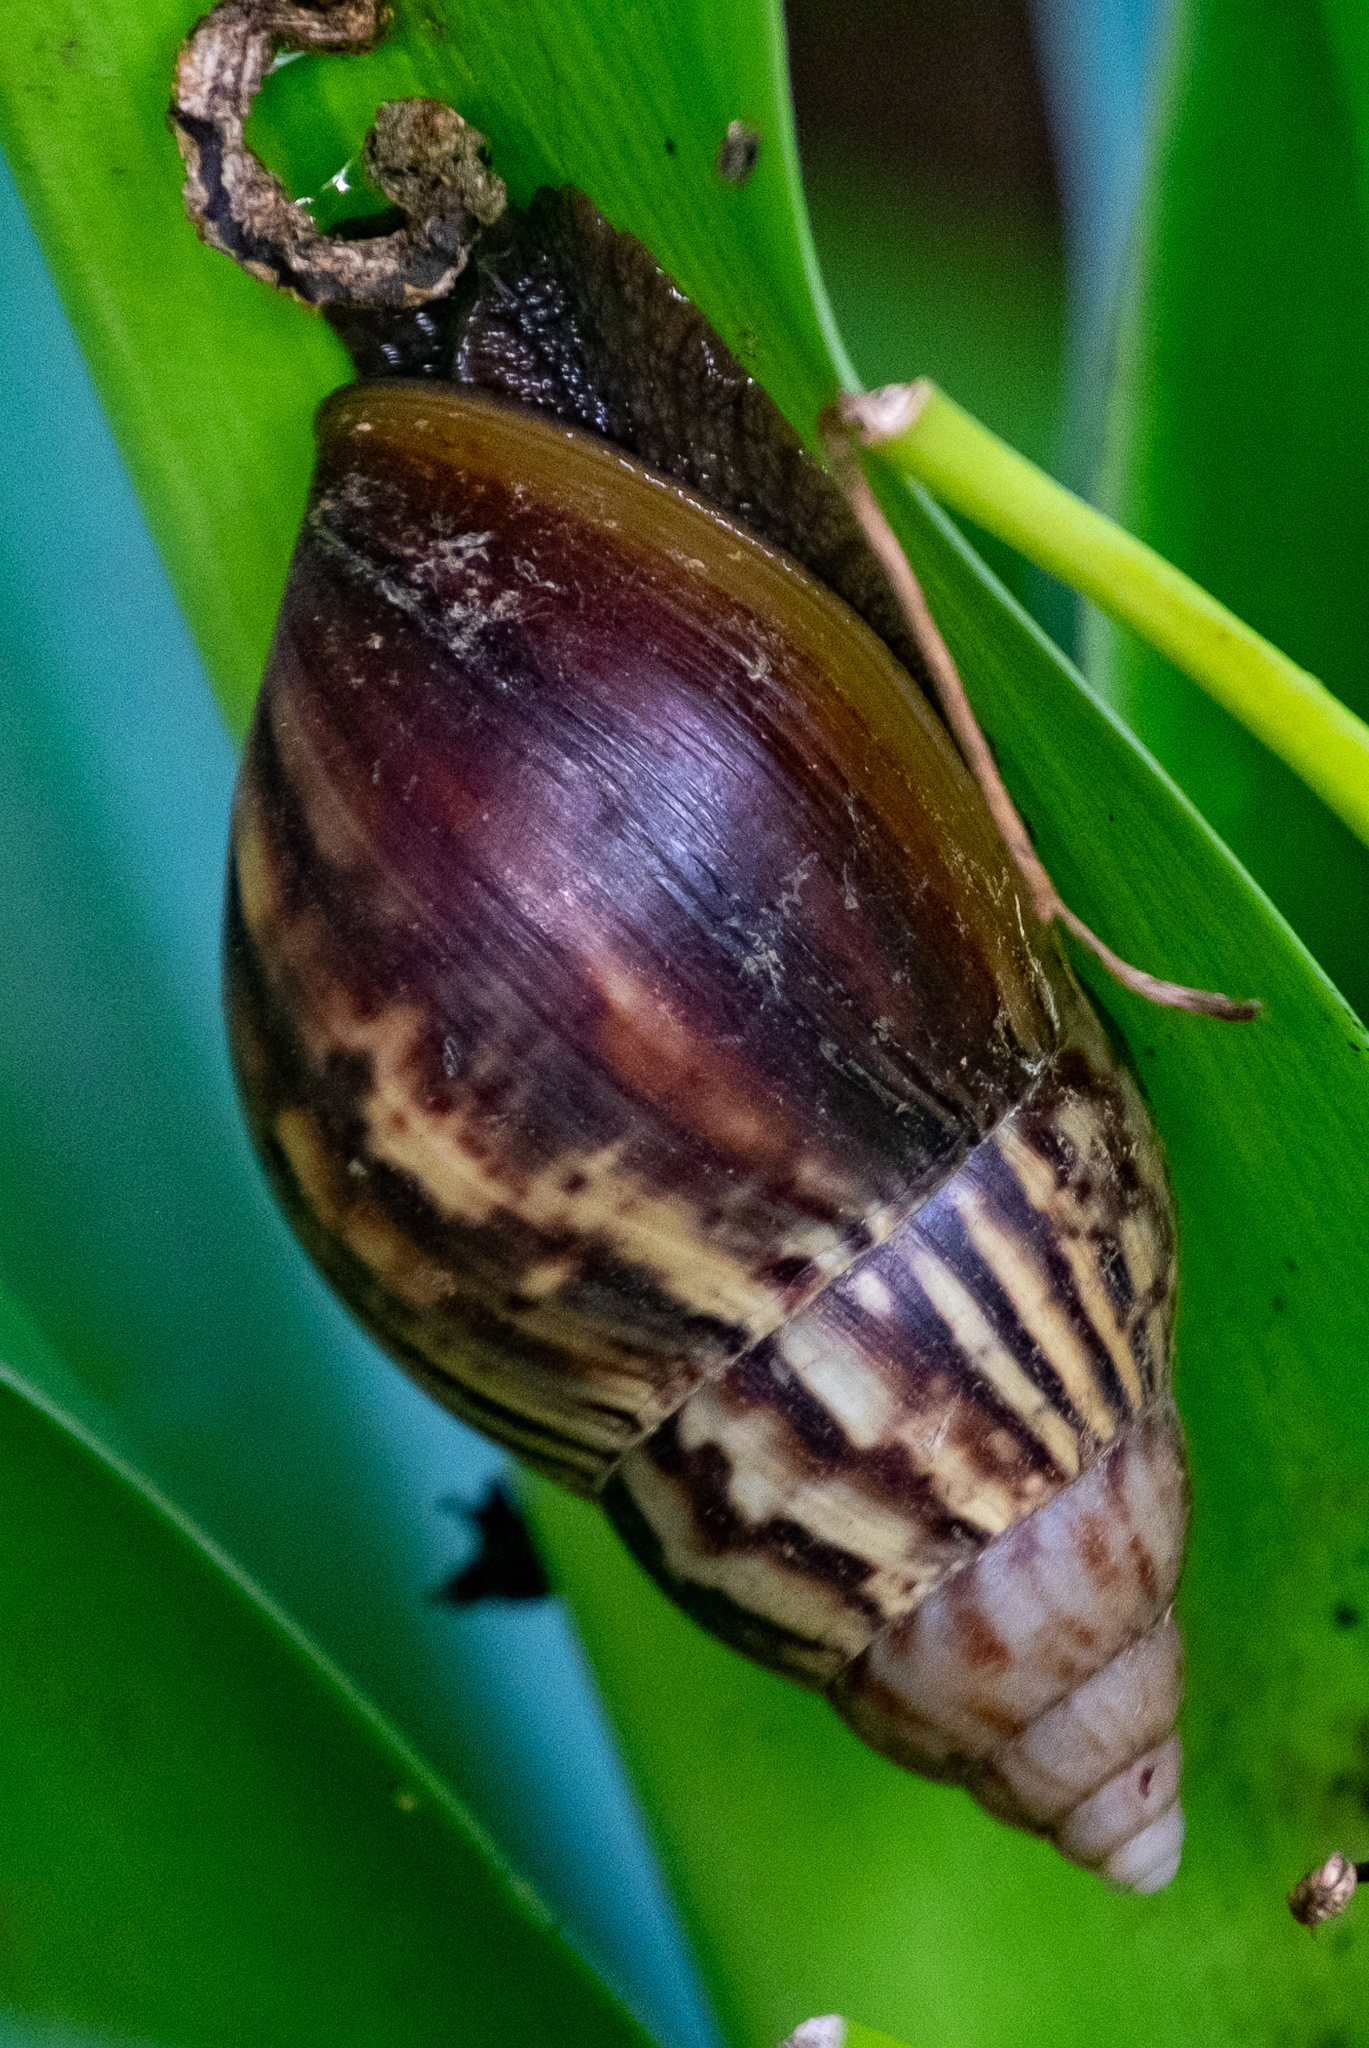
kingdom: Animalia
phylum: Mollusca
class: Gastropoda
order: Stylommatophora
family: Achatinidae
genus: Lissachatina
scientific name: Lissachatina fulica
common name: Giant african snail
